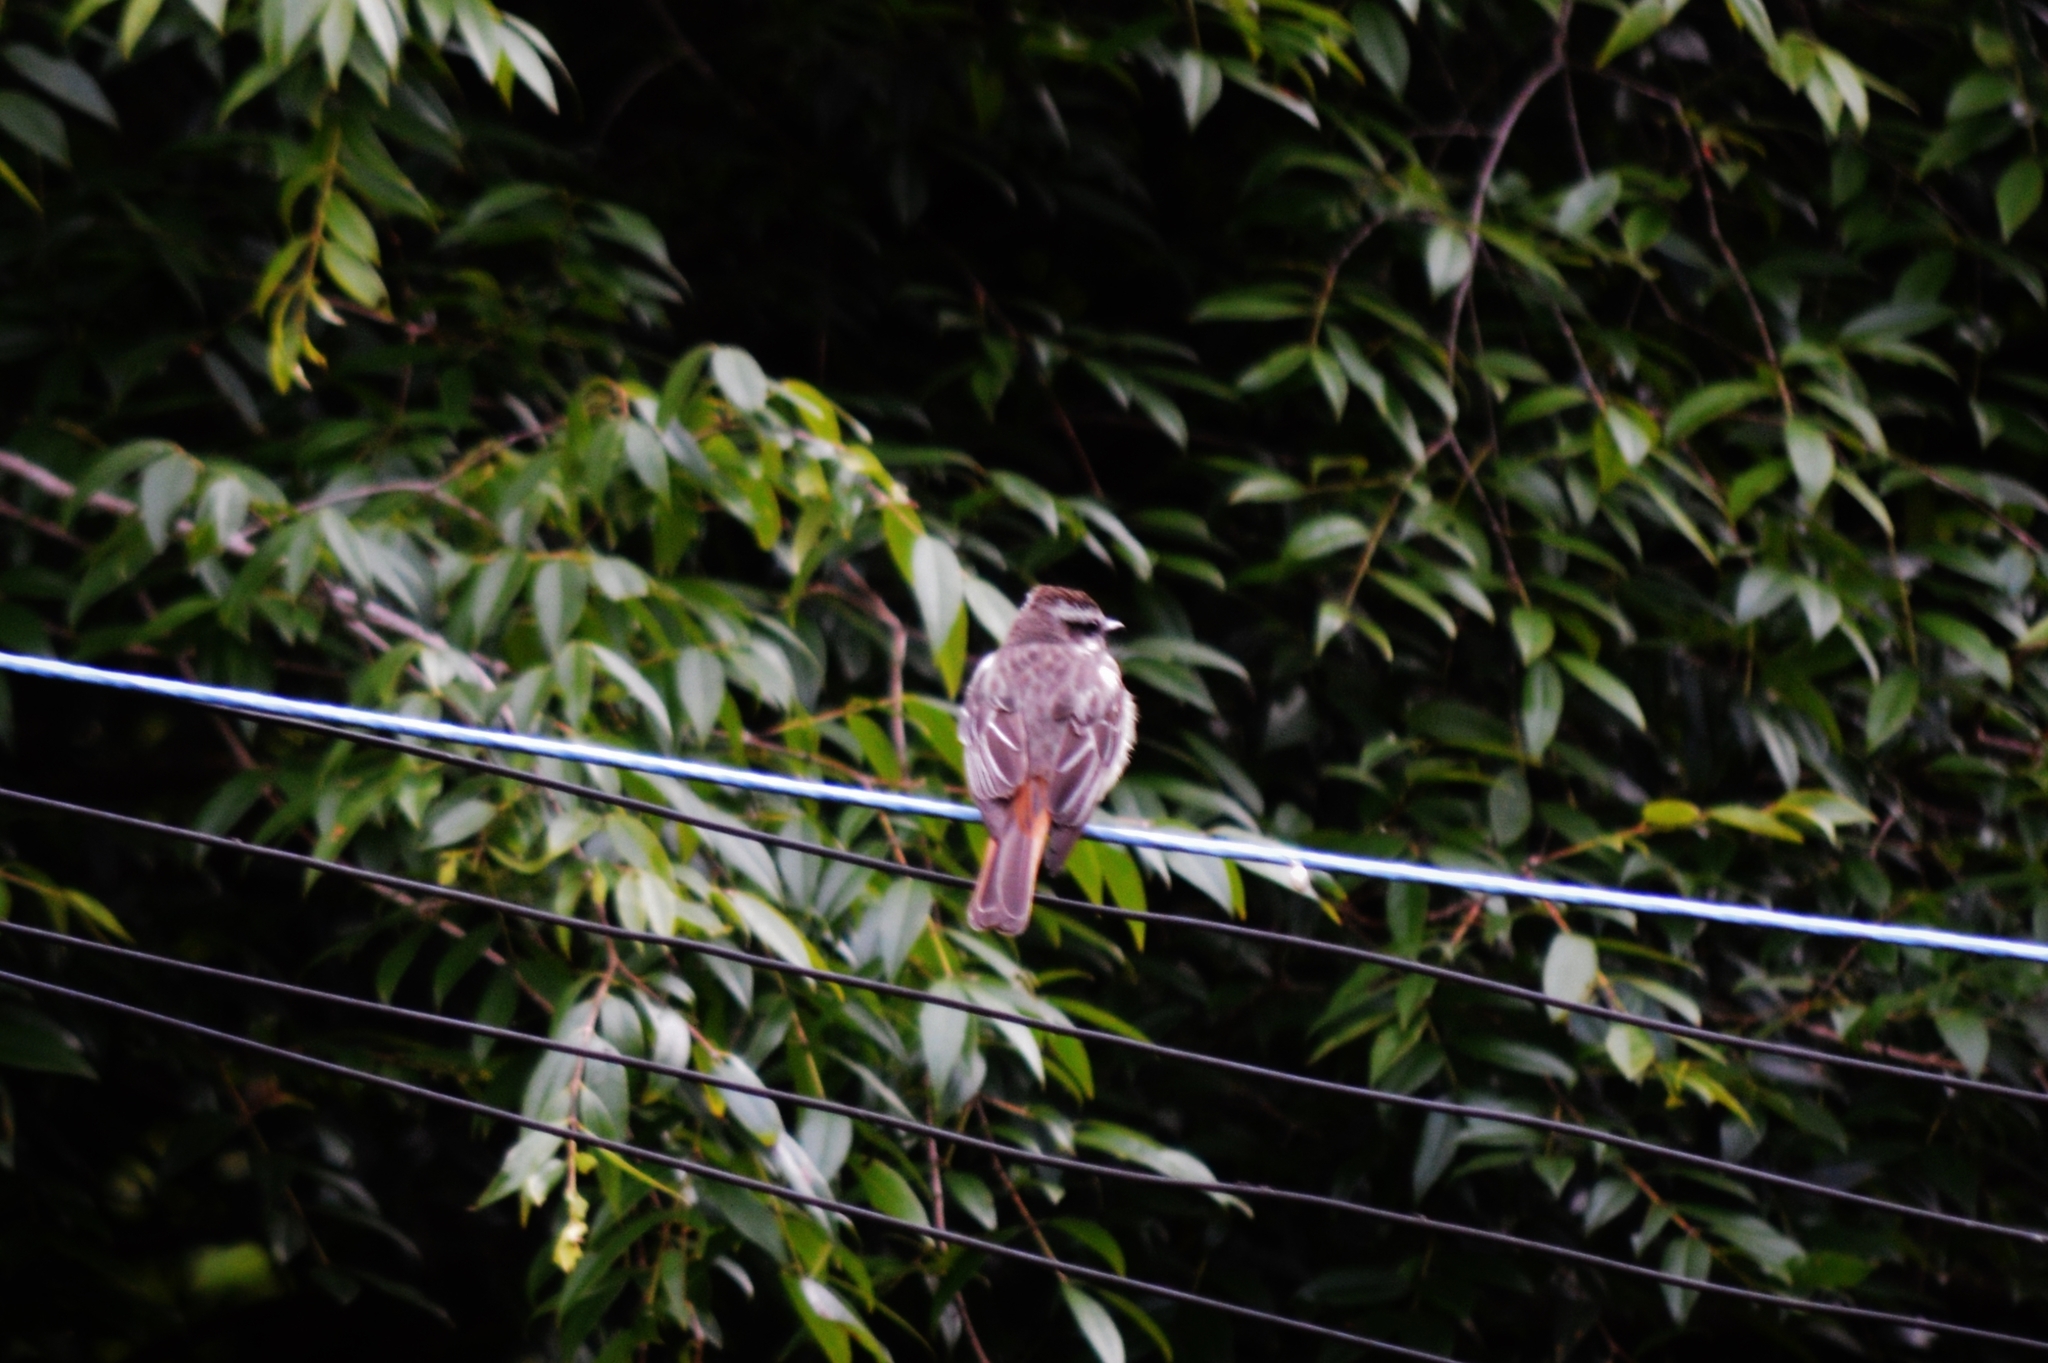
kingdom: Animalia
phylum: Chordata
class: Aves
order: Passeriformes
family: Tyrannidae
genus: Empidonomus
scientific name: Empidonomus varius
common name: Variegated flycatcher
